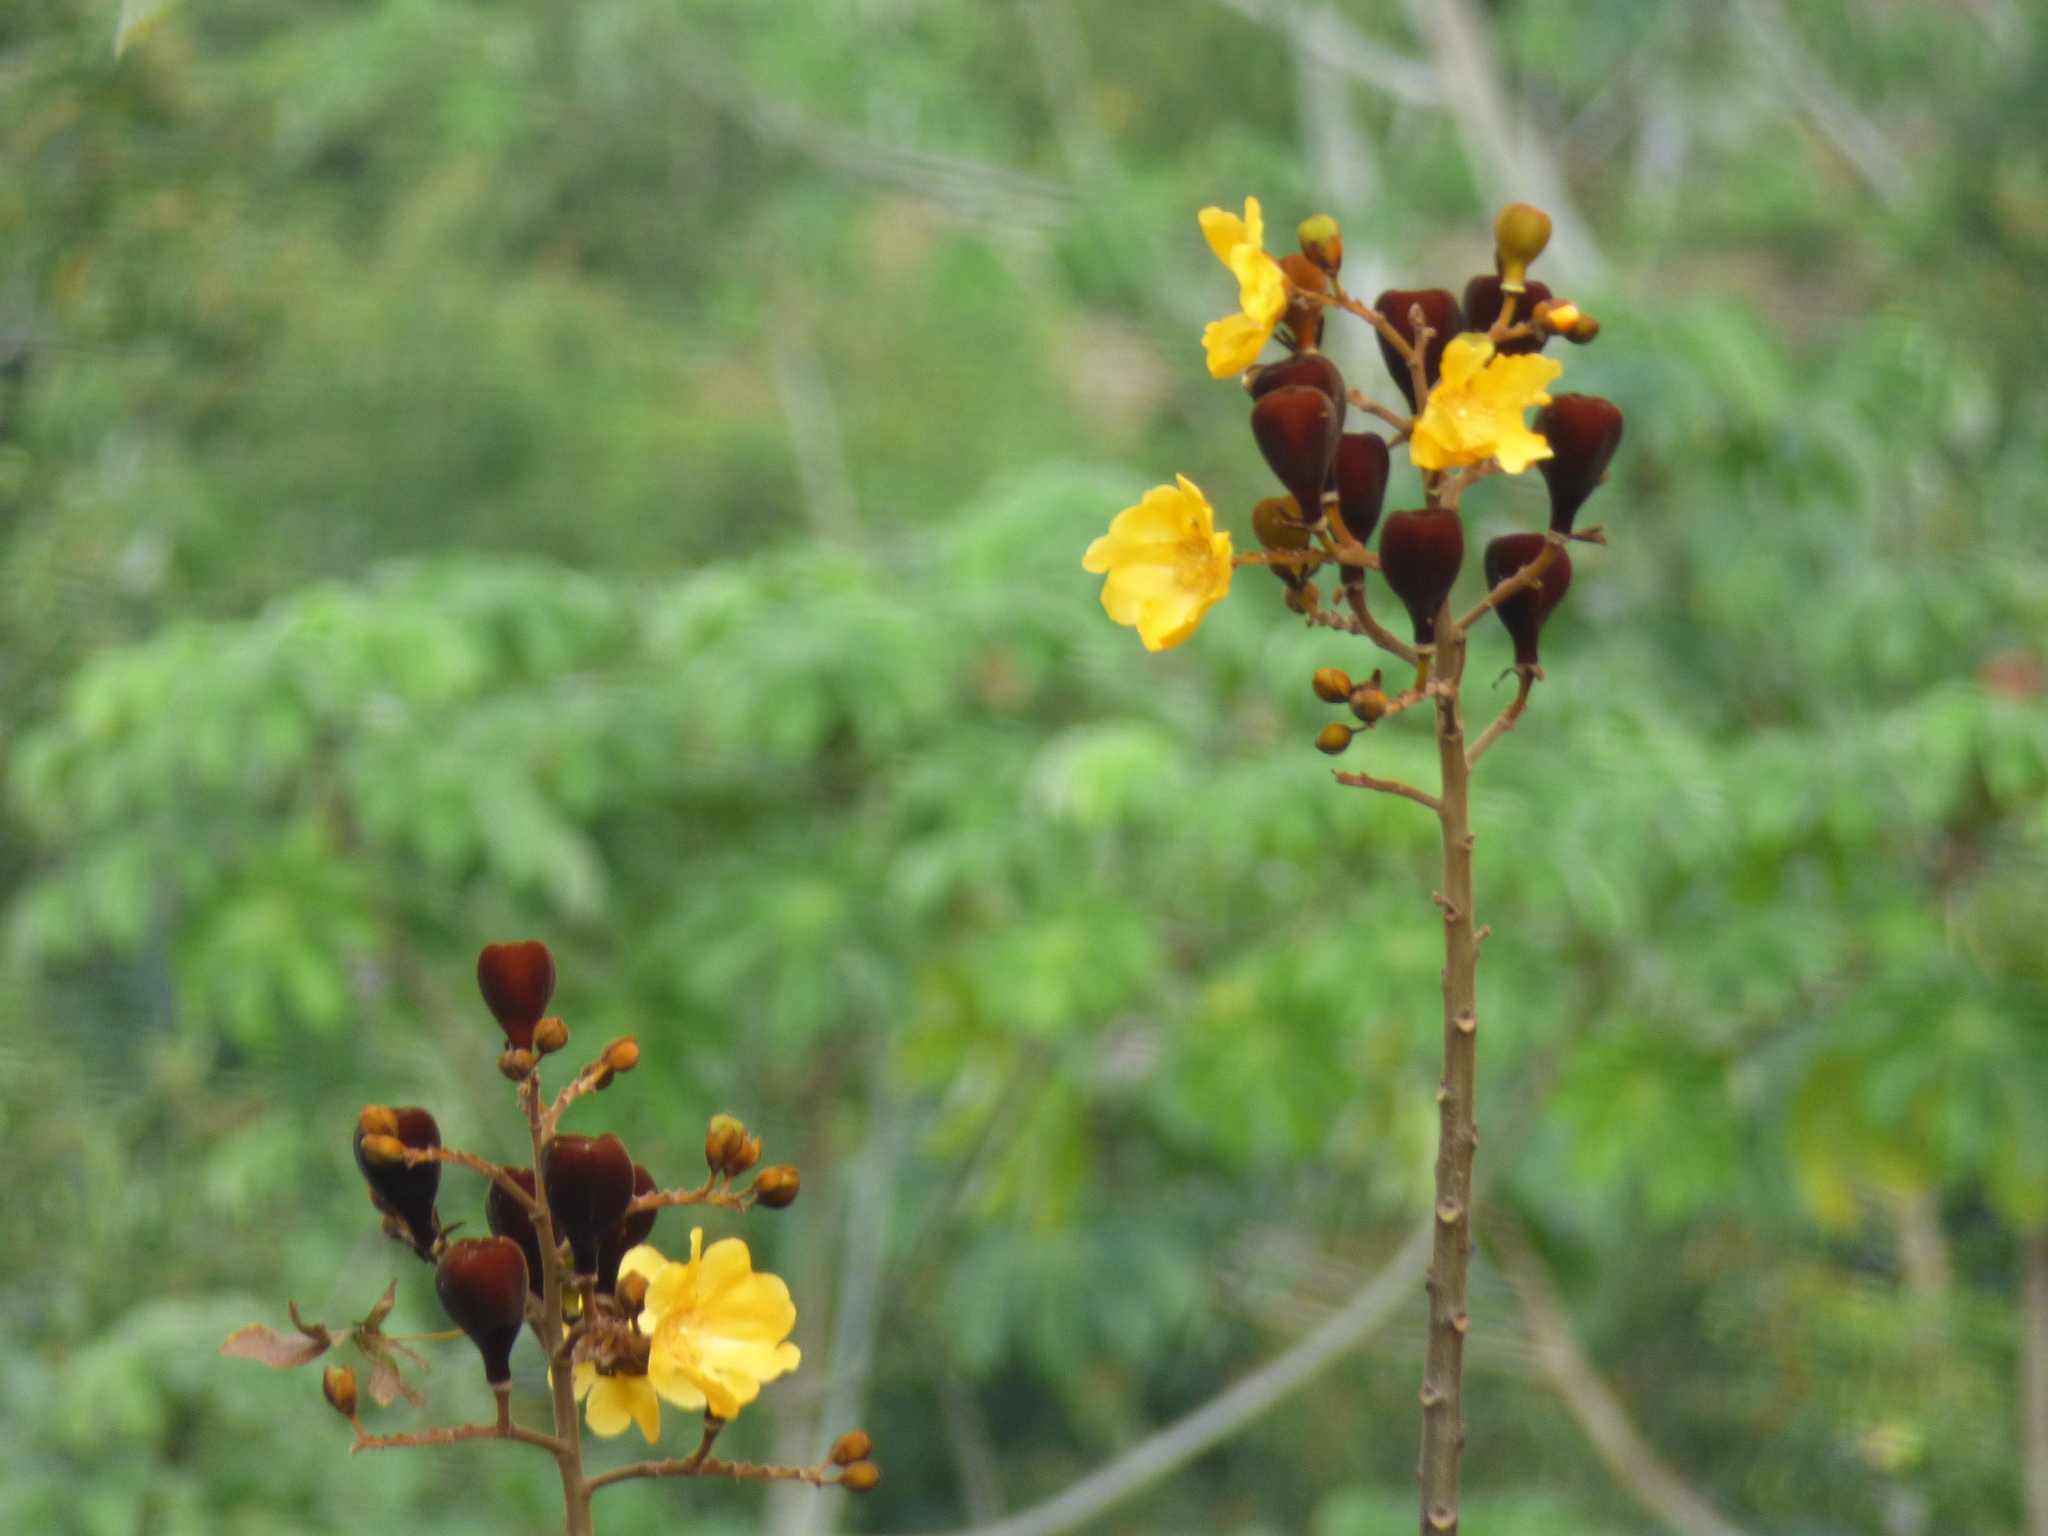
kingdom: Plantae
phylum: Tracheophyta
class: Magnoliopsida
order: Malvales
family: Cochlospermaceae
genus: Cochlospermum
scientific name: Cochlospermum vitifolium
